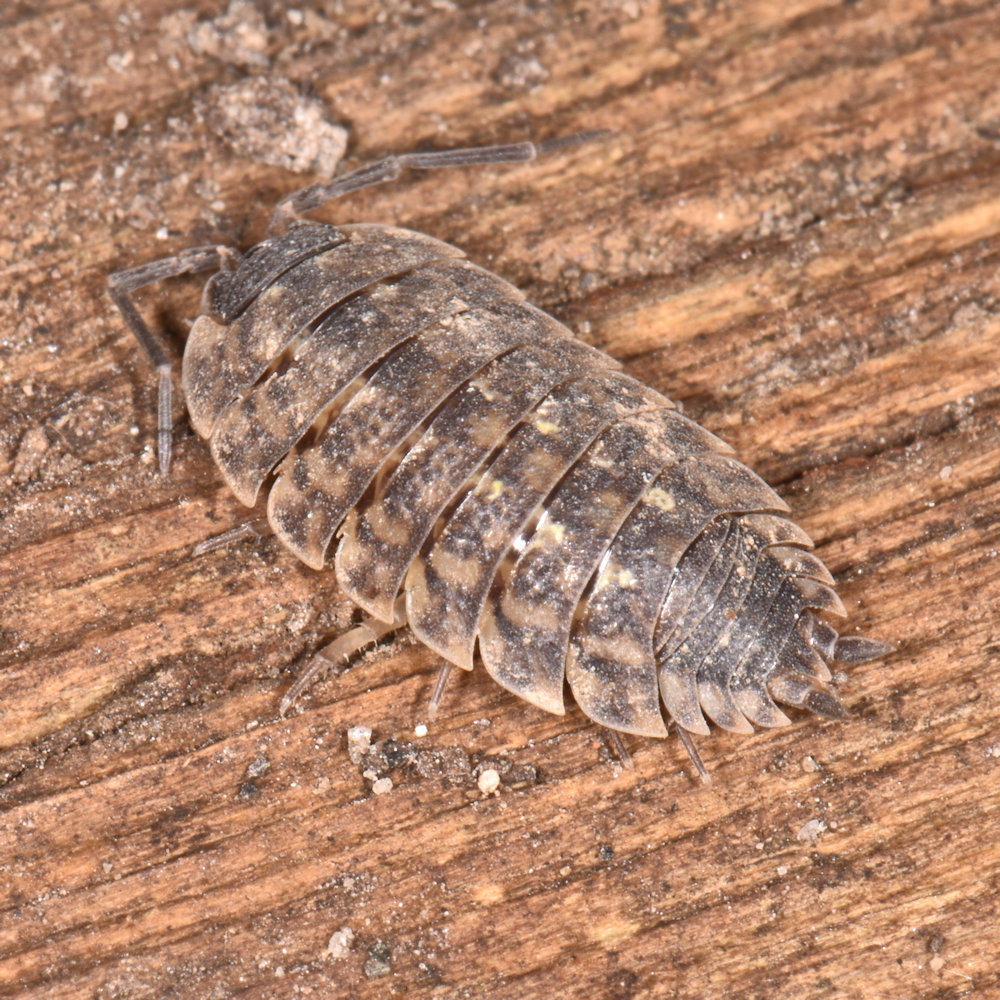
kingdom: Animalia
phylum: Arthropoda
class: Malacostraca
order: Isopoda
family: Porcellionidae
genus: Porcellio
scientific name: Porcellio spinicornis
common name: Painted woodlouse
